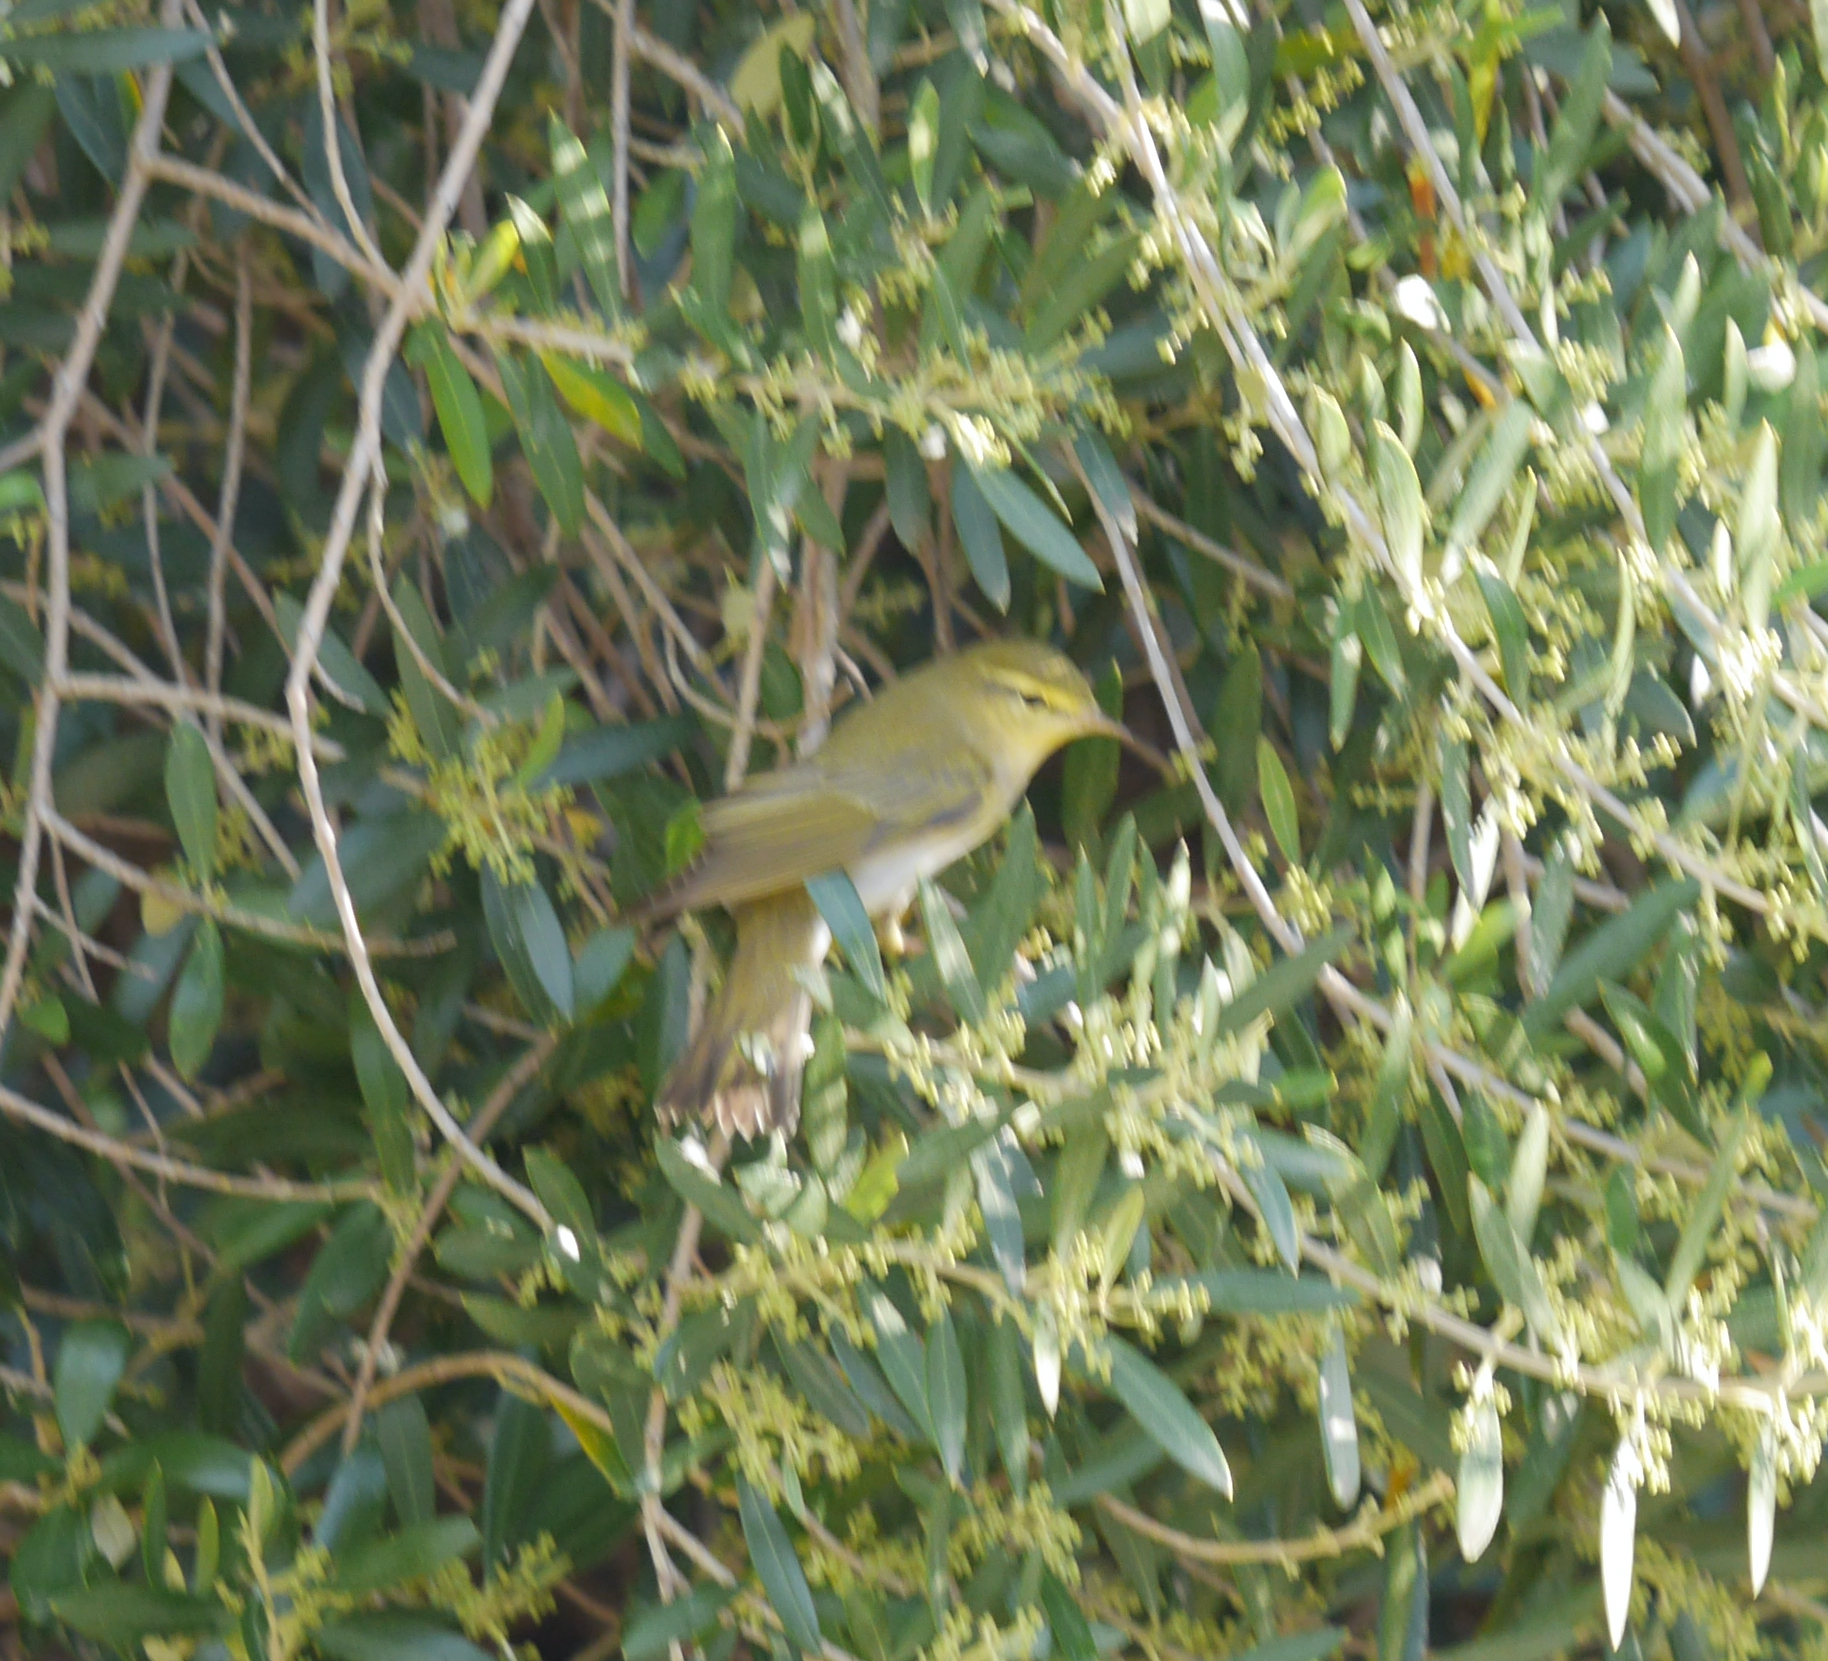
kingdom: Animalia
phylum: Chordata
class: Aves
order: Passeriformes
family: Phylloscopidae
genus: Phylloscopus
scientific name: Phylloscopus sibillatrix
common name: Wood warbler
